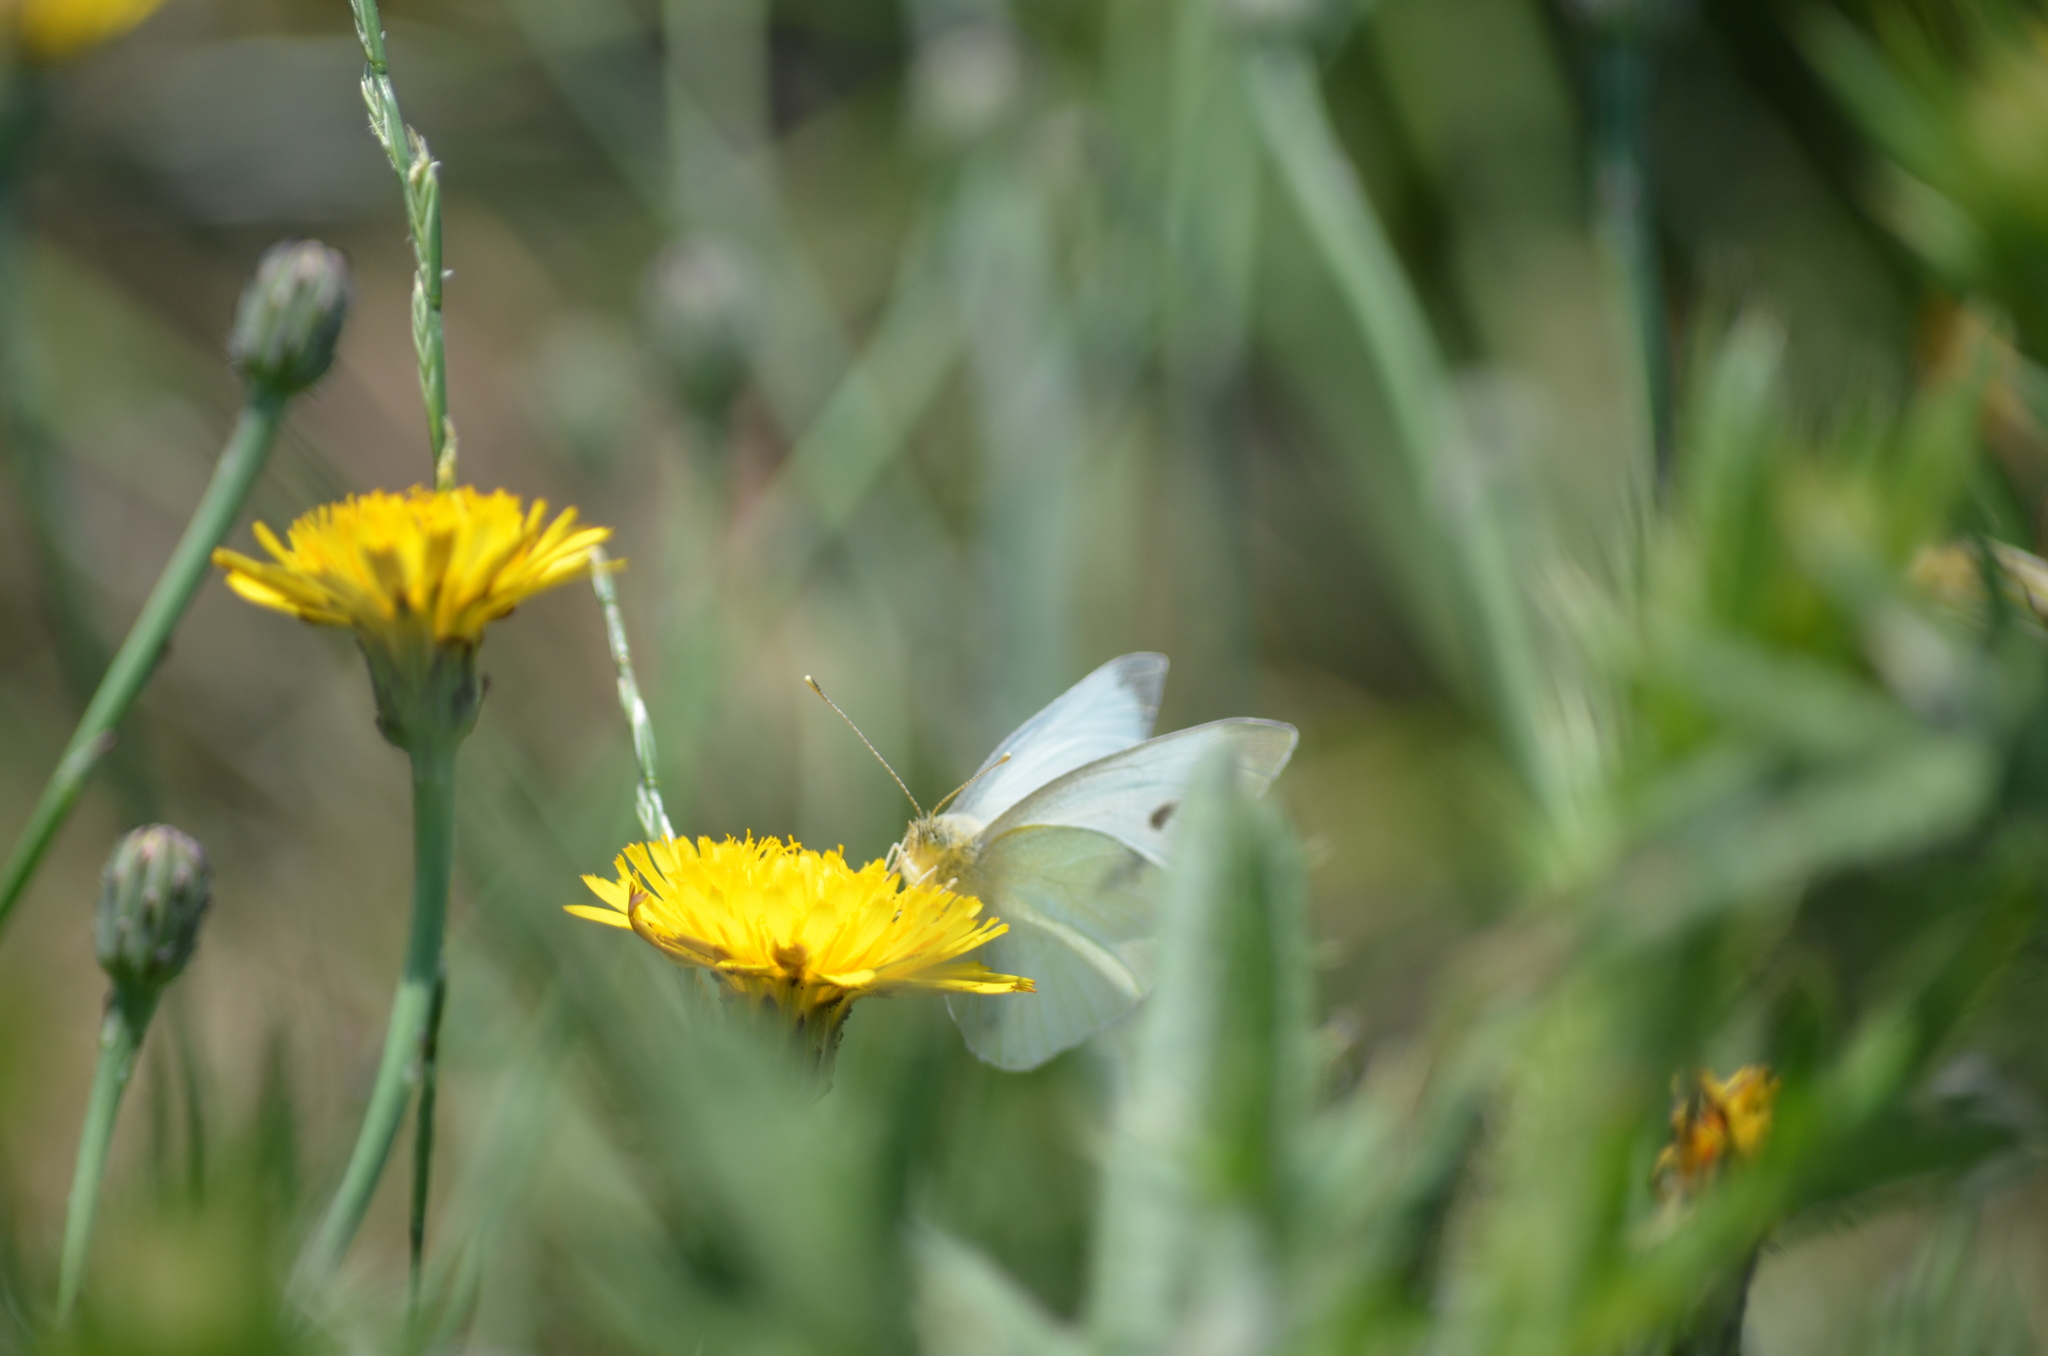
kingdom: Animalia
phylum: Arthropoda
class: Insecta
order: Lepidoptera
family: Pieridae
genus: Pieris
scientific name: Pieris rapae
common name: Small white
